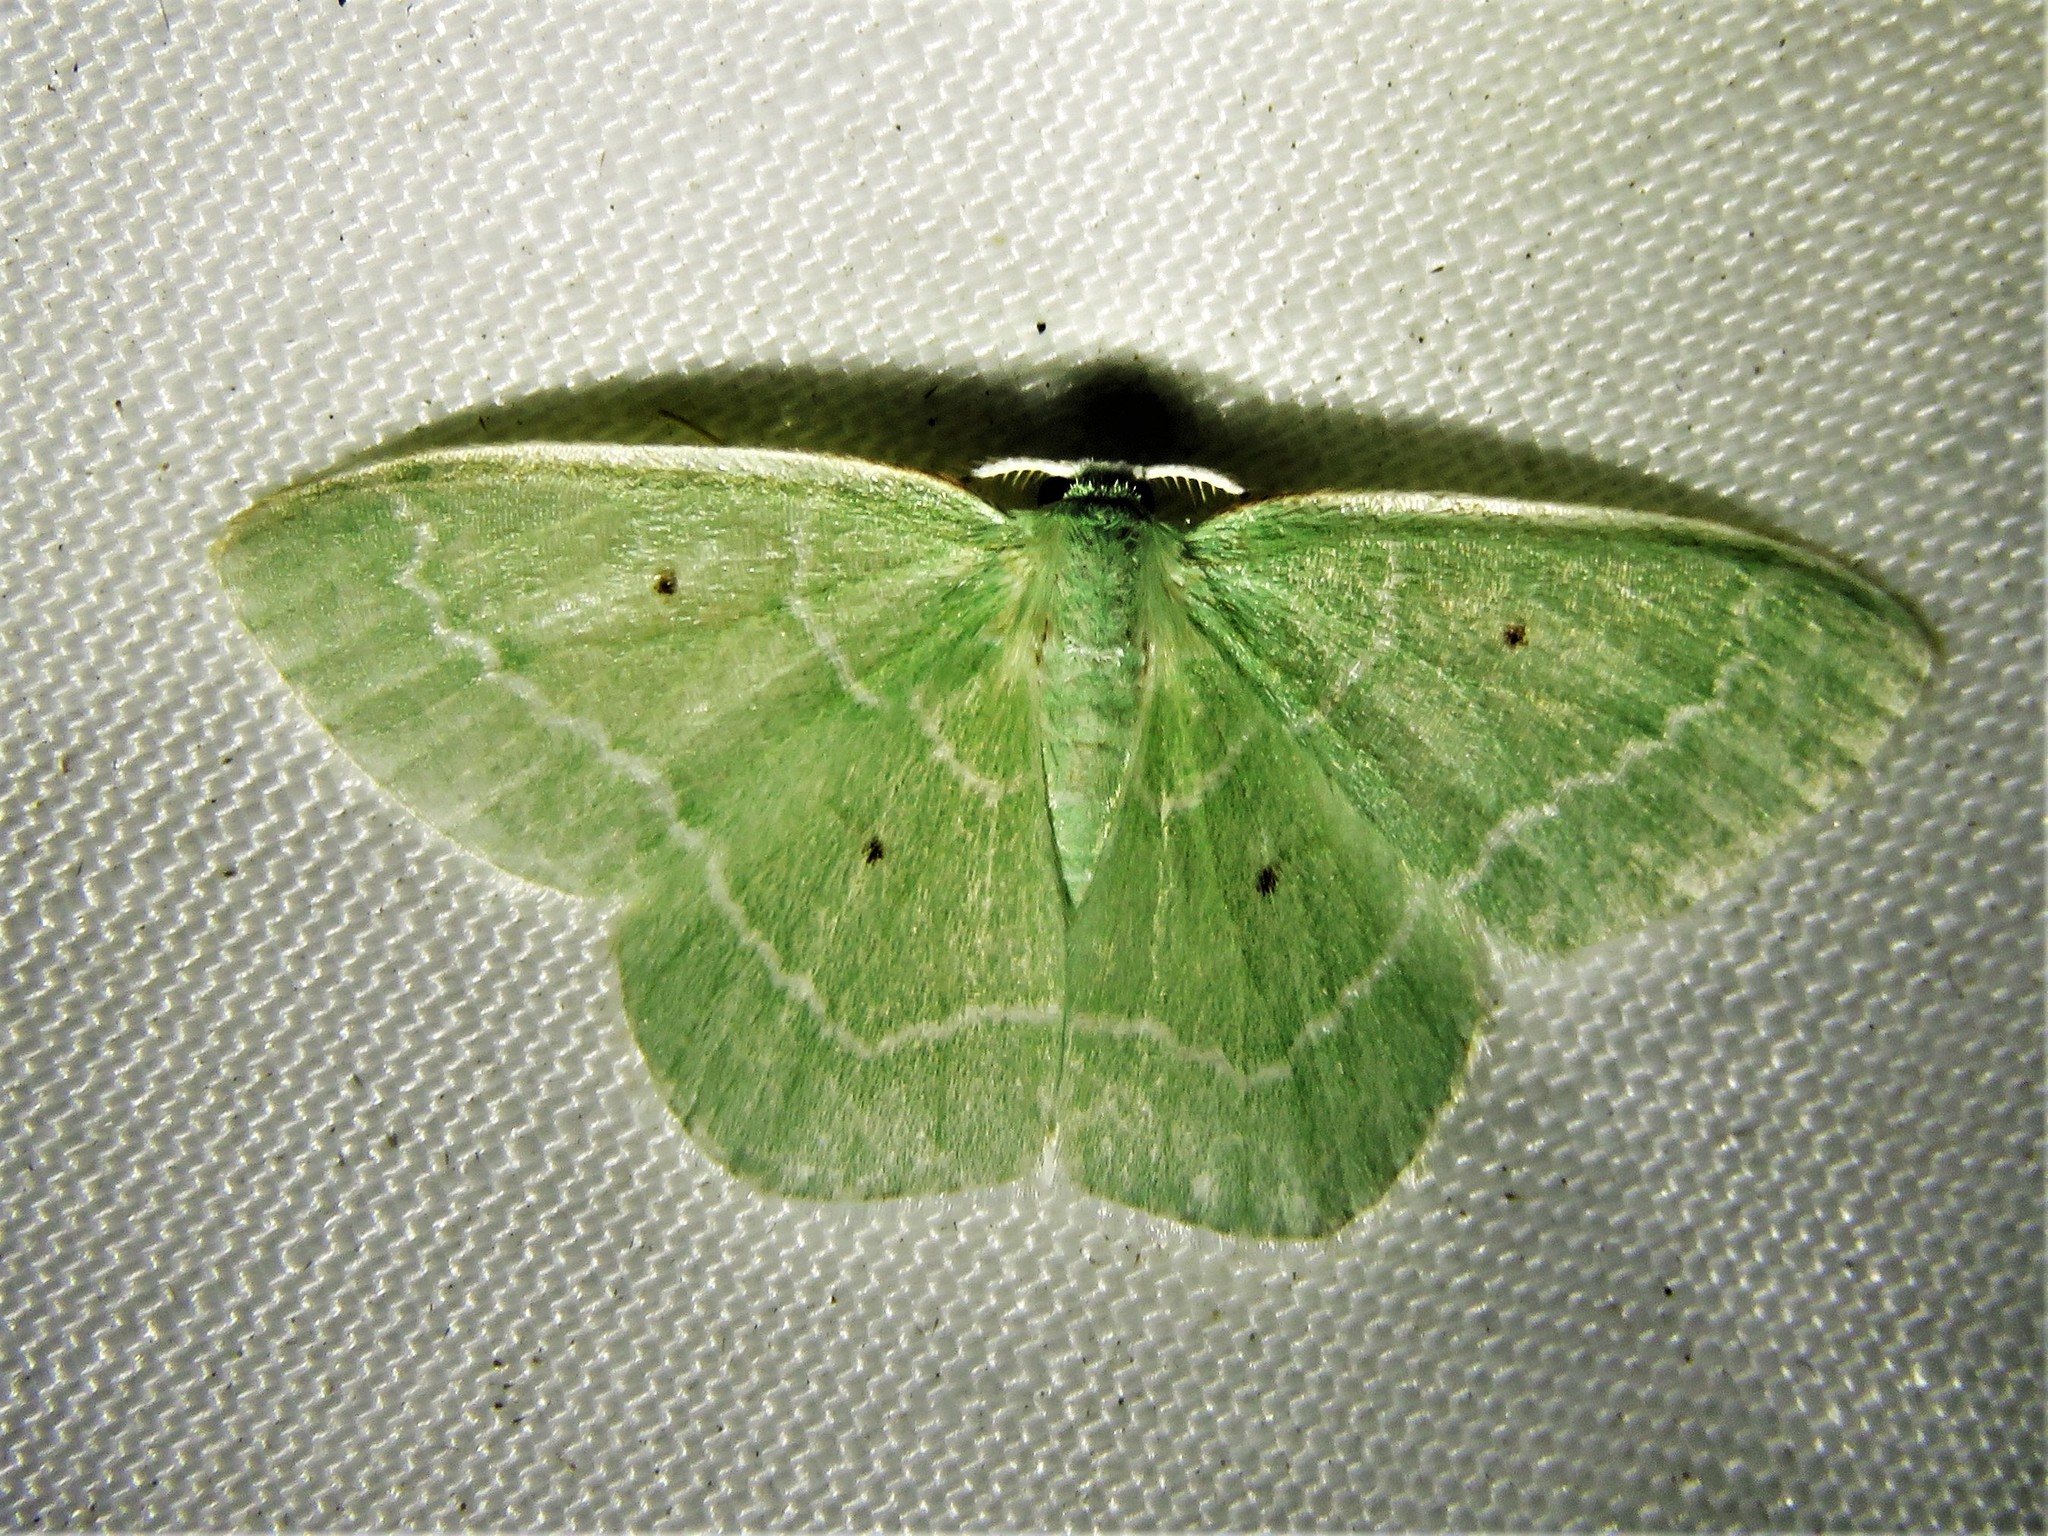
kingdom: Animalia
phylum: Arthropoda
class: Insecta
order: Lepidoptera
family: Geometridae
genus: Nemoria
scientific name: Nemoria elfa
